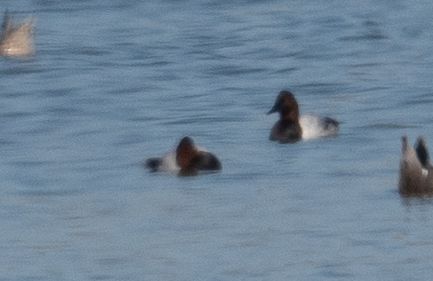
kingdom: Animalia
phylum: Chordata
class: Aves
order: Anseriformes
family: Anatidae
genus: Aythya
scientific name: Aythya valisineria
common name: Canvasback
